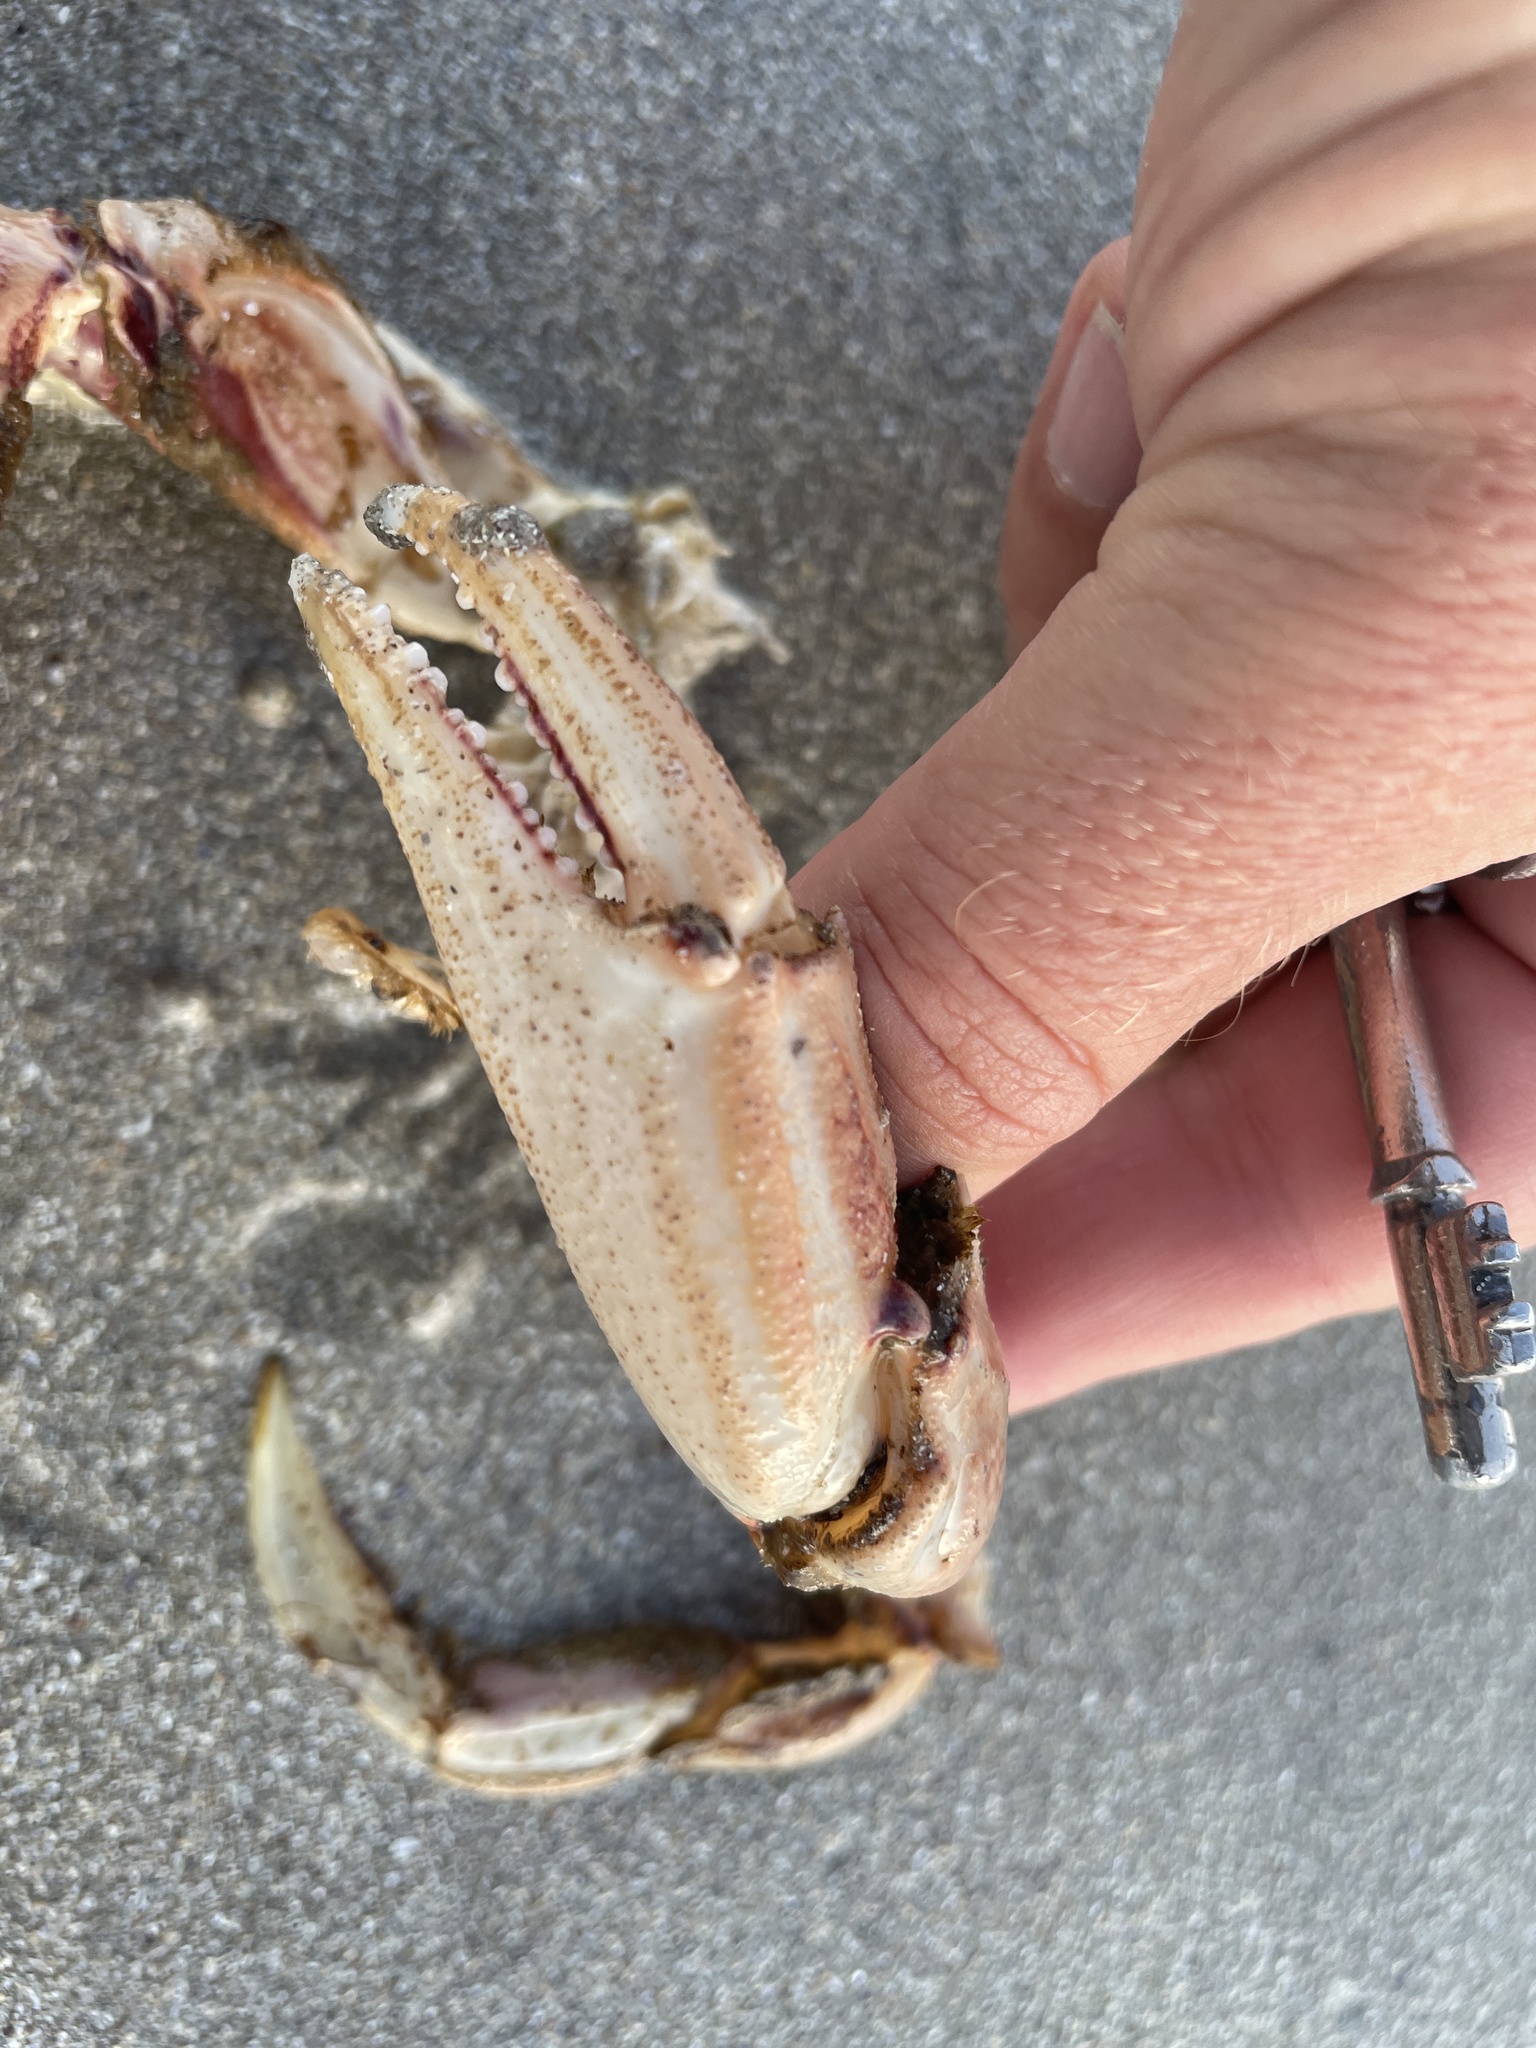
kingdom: Animalia
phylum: Arthropoda
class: Malacostraca
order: Decapoda
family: Ovalipidae
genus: Ovalipes
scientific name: Ovalipes trimaculatus
